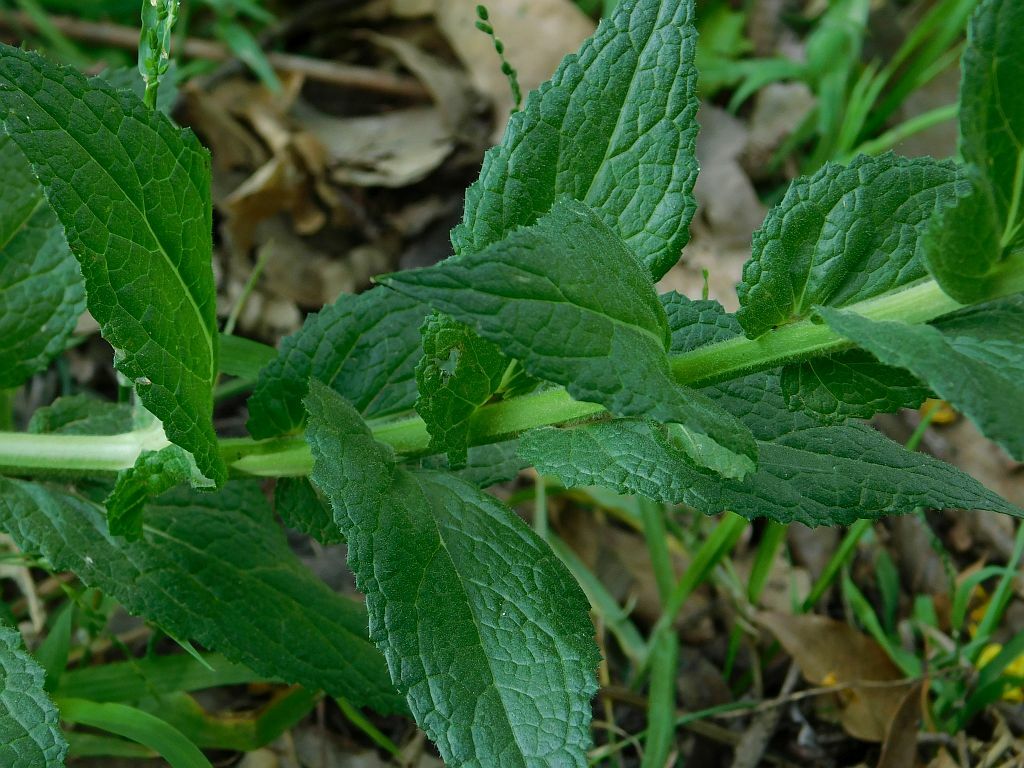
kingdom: Plantae
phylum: Tracheophyta
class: Magnoliopsida
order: Lamiales
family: Scrophulariaceae
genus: Verbascum
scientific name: Verbascum virgatum
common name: Twiggy mullein
